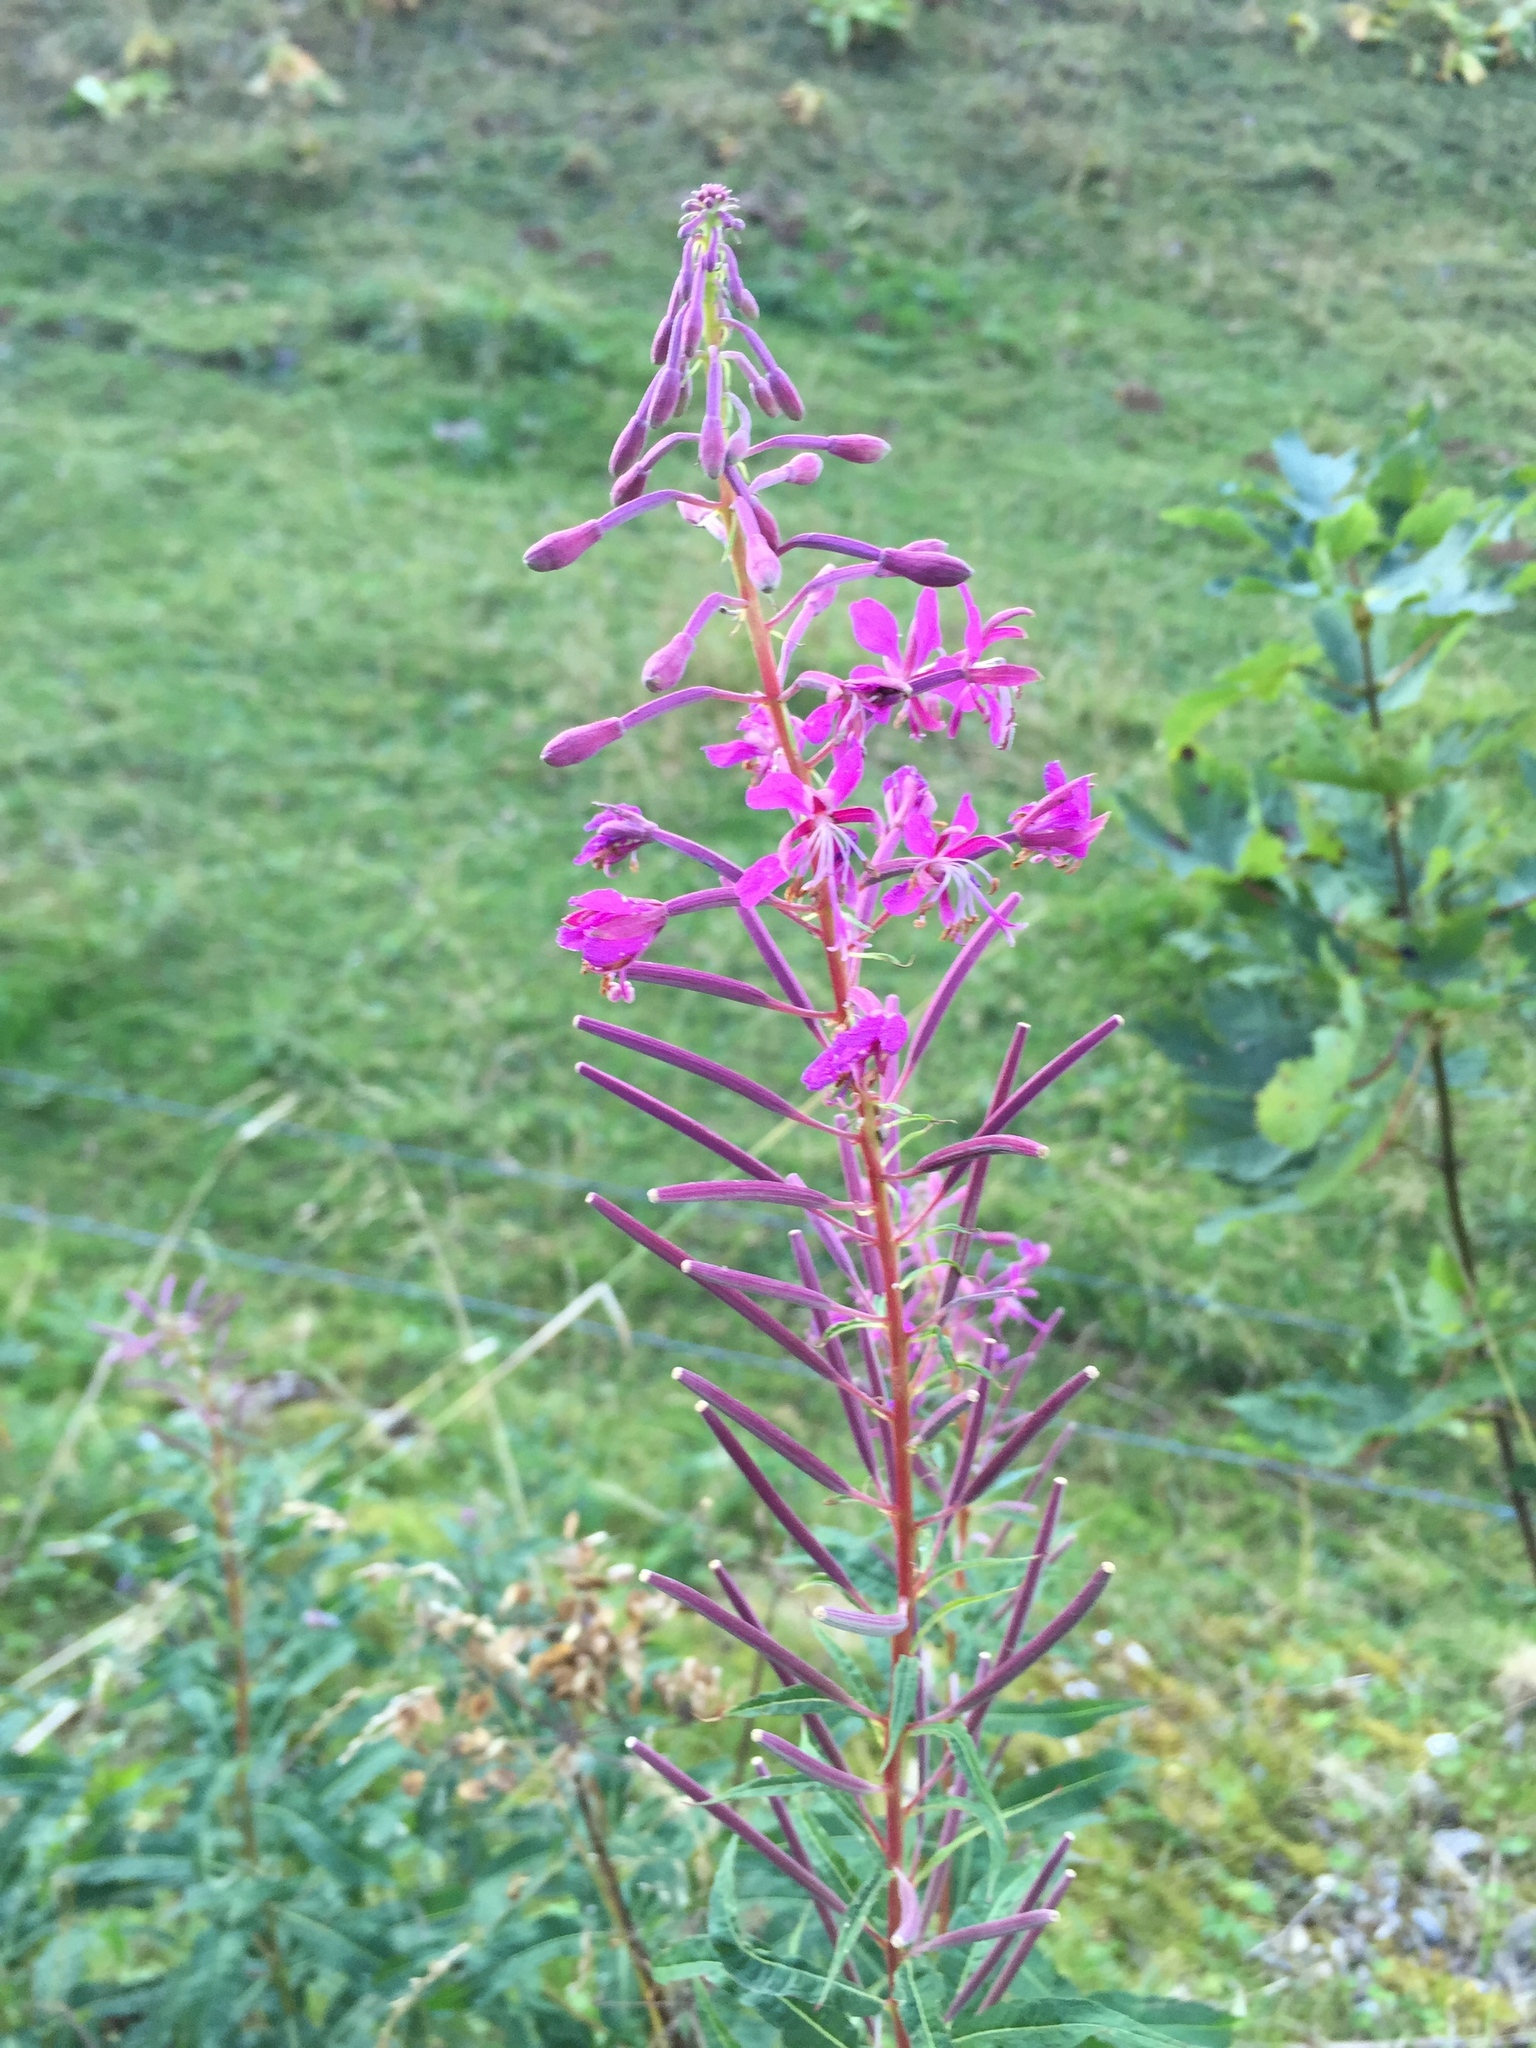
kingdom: Plantae
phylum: Tracheophyta
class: Magnoliopsida
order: Myrtales
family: Onagraceae
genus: Chamaenerion
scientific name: Chamaenerion angustifolium
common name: Fireweed
